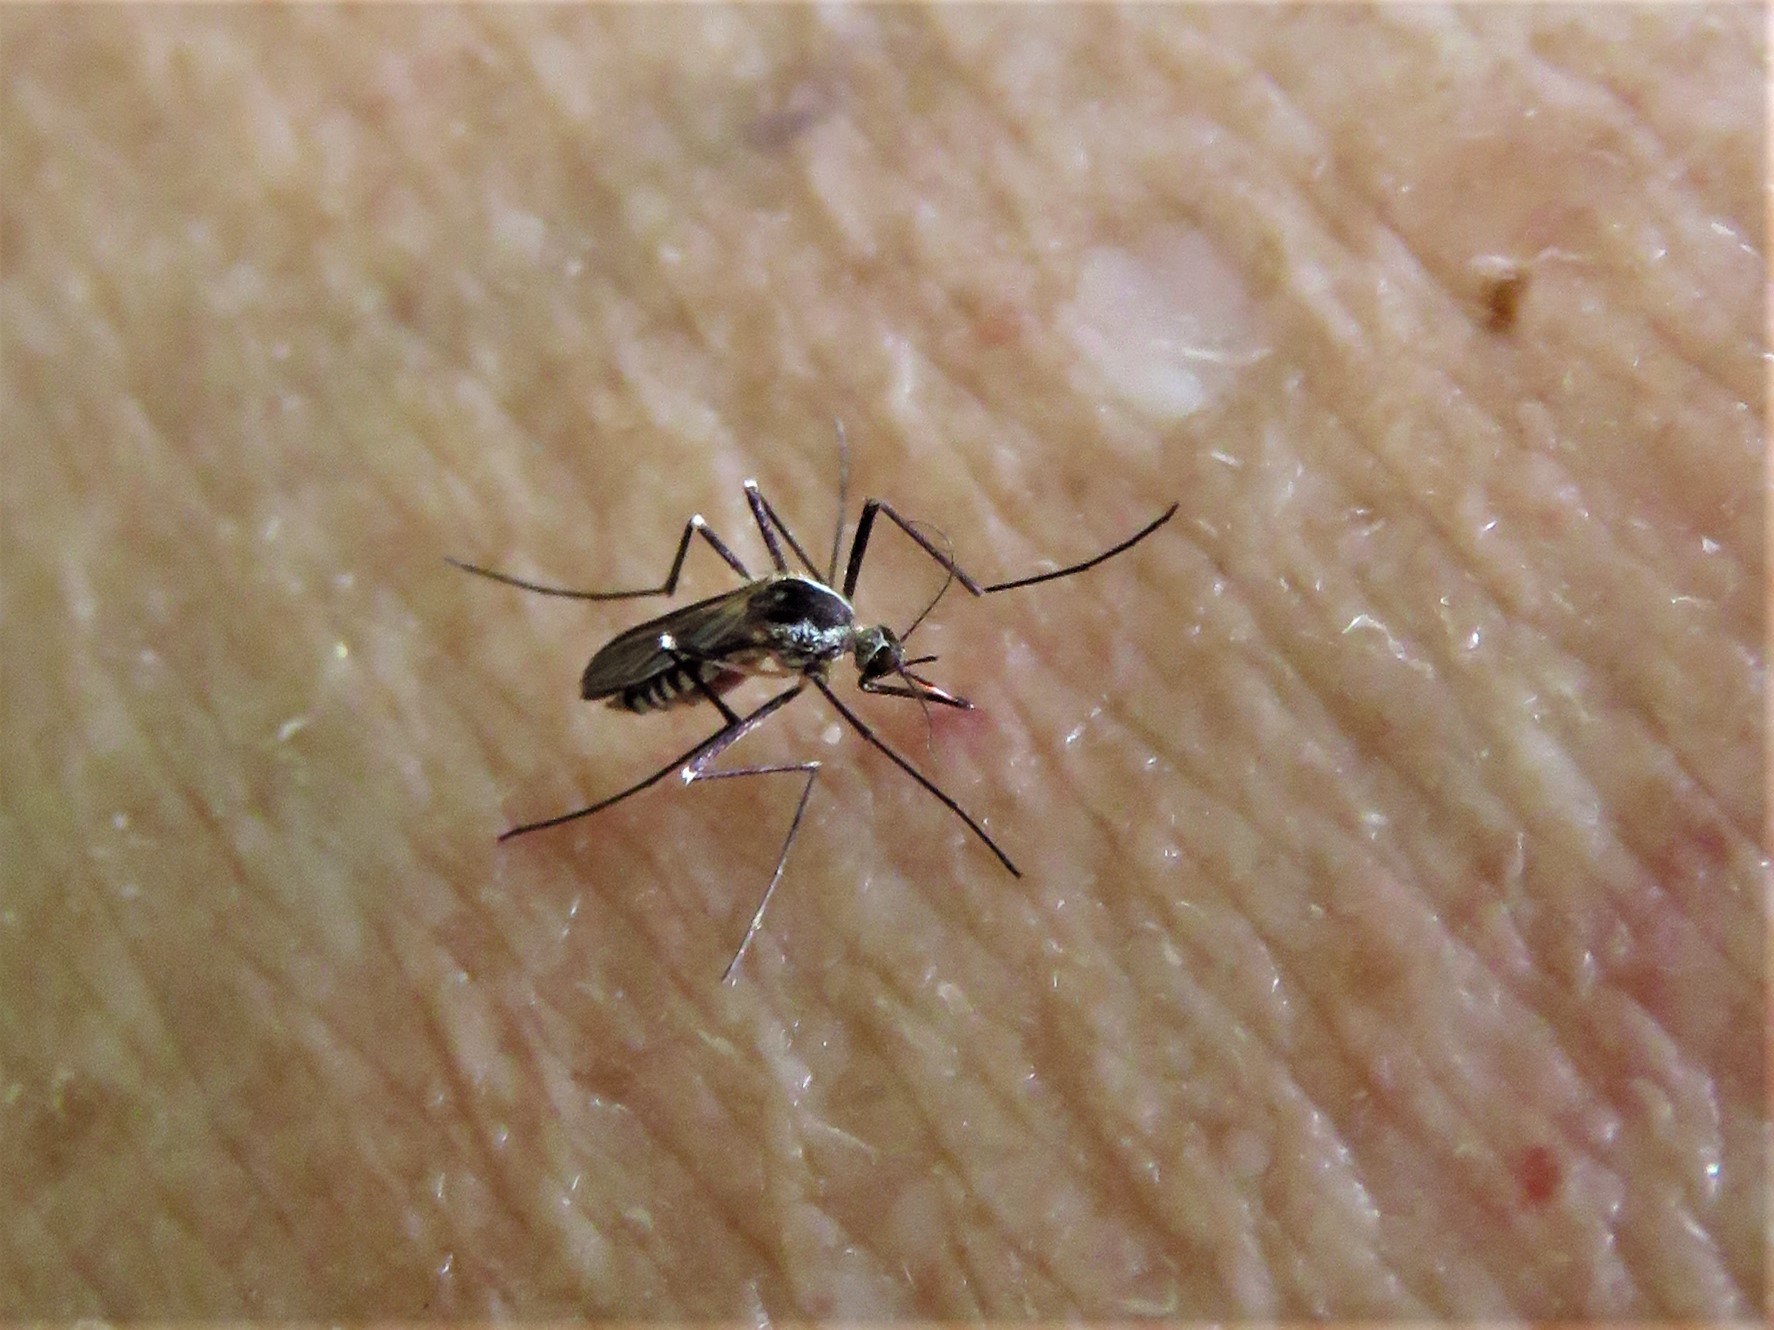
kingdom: Animalia
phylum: Arthropoda
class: Insecta
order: Diptera
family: Culicidae
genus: Aedes
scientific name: Aedes triseriatus
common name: Eastern treehole mosquito
